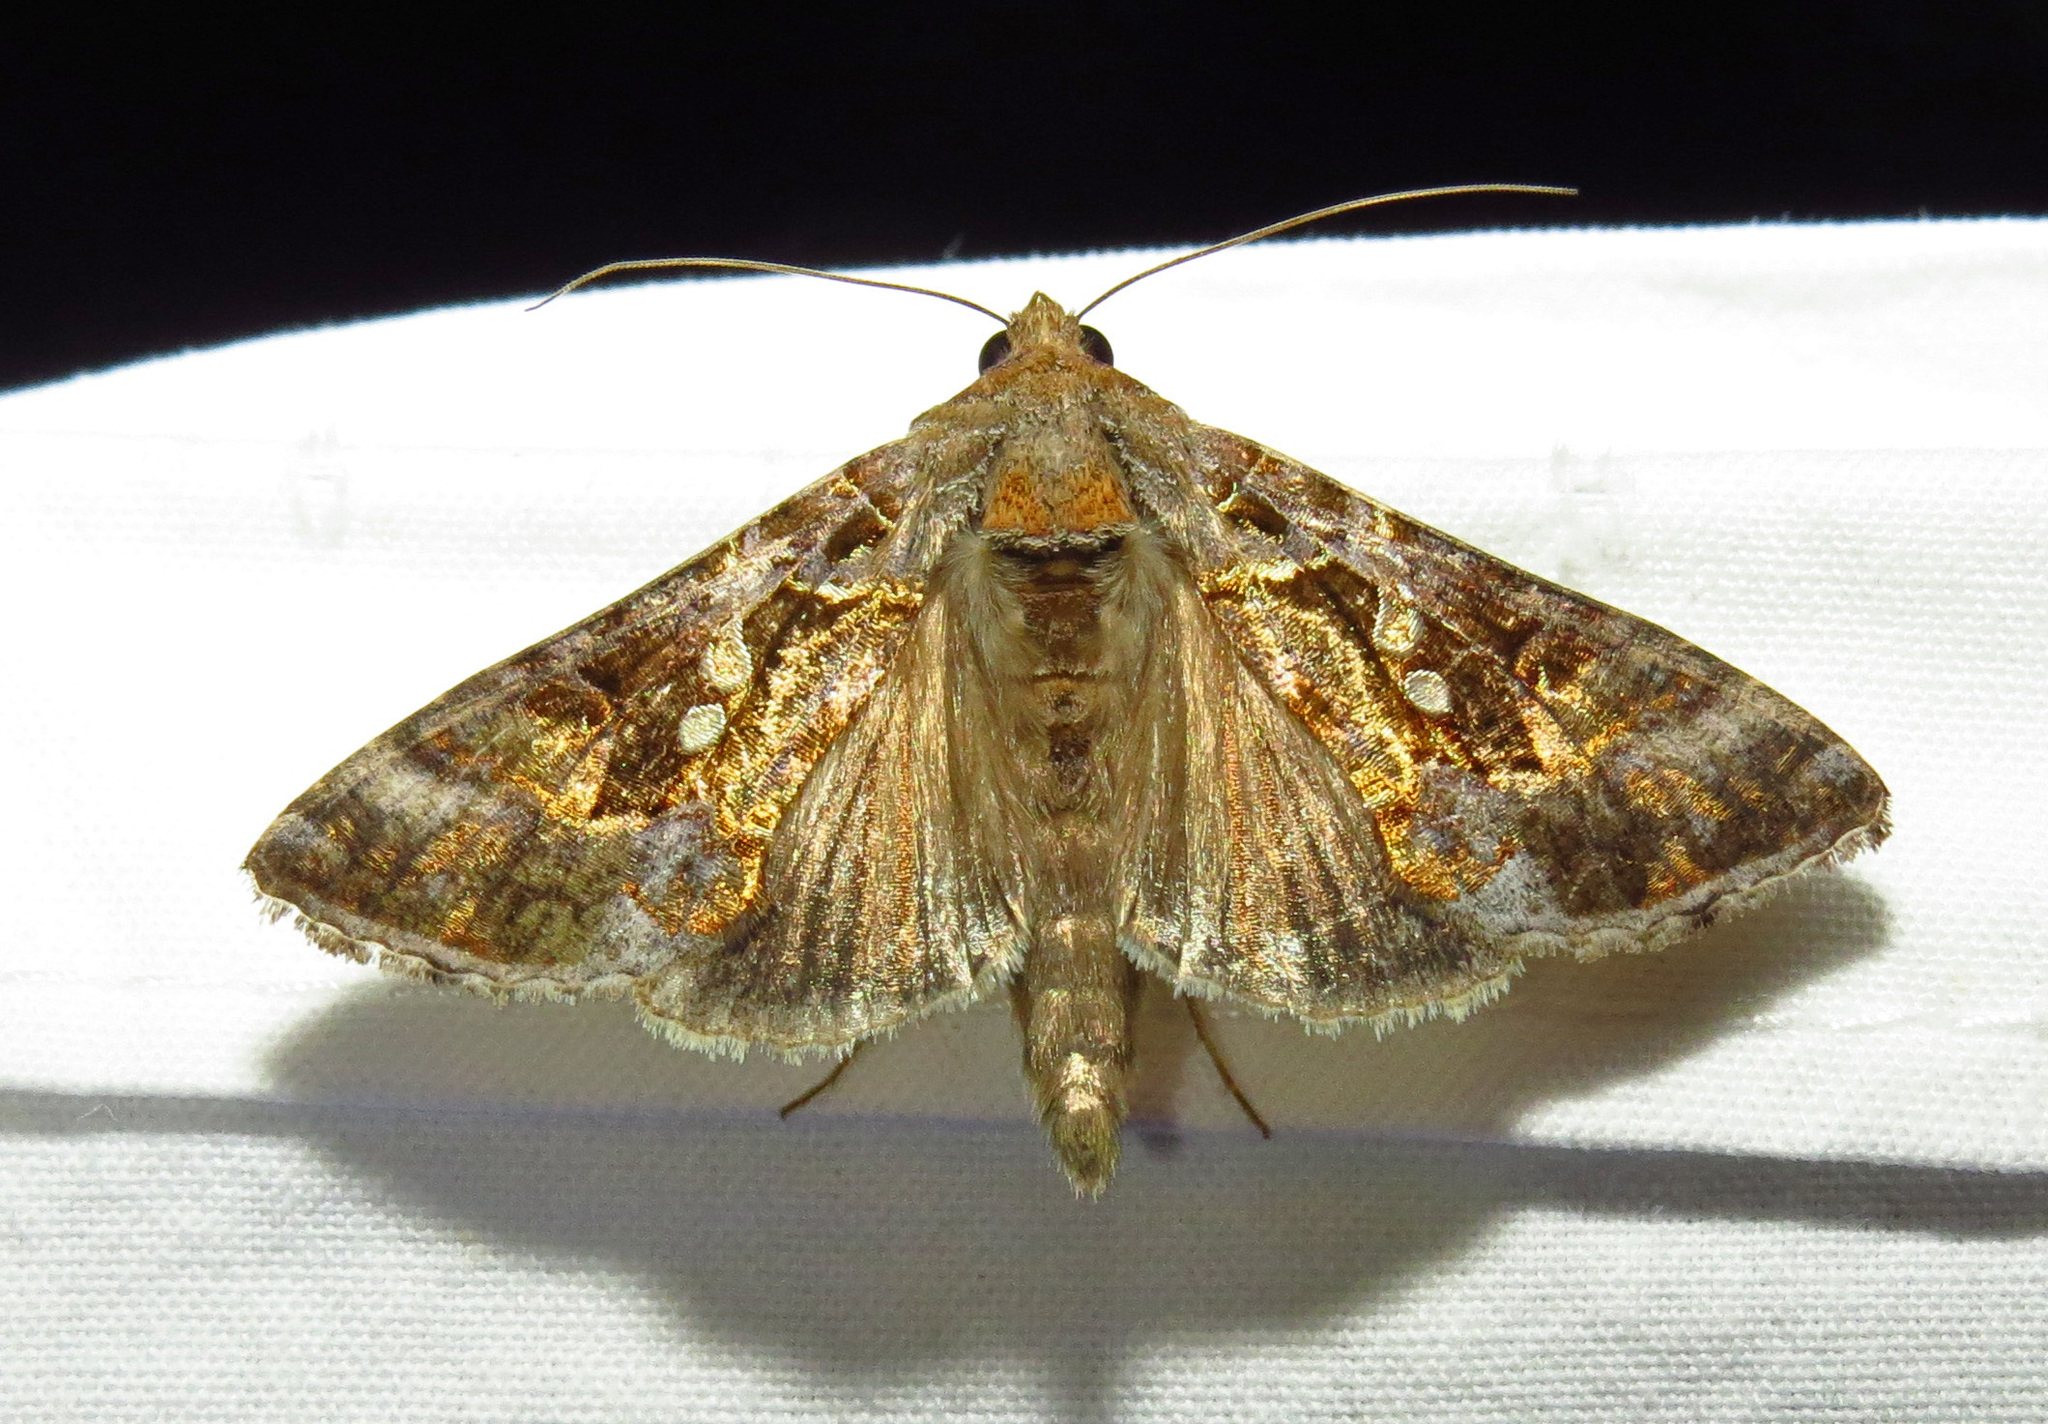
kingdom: Animalia
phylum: Arthropoda
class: Insecta
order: Lepidoptera
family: Noctuidae
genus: Chrysodeixis
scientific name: Chrysodeixis includens
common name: Cutworm moth
